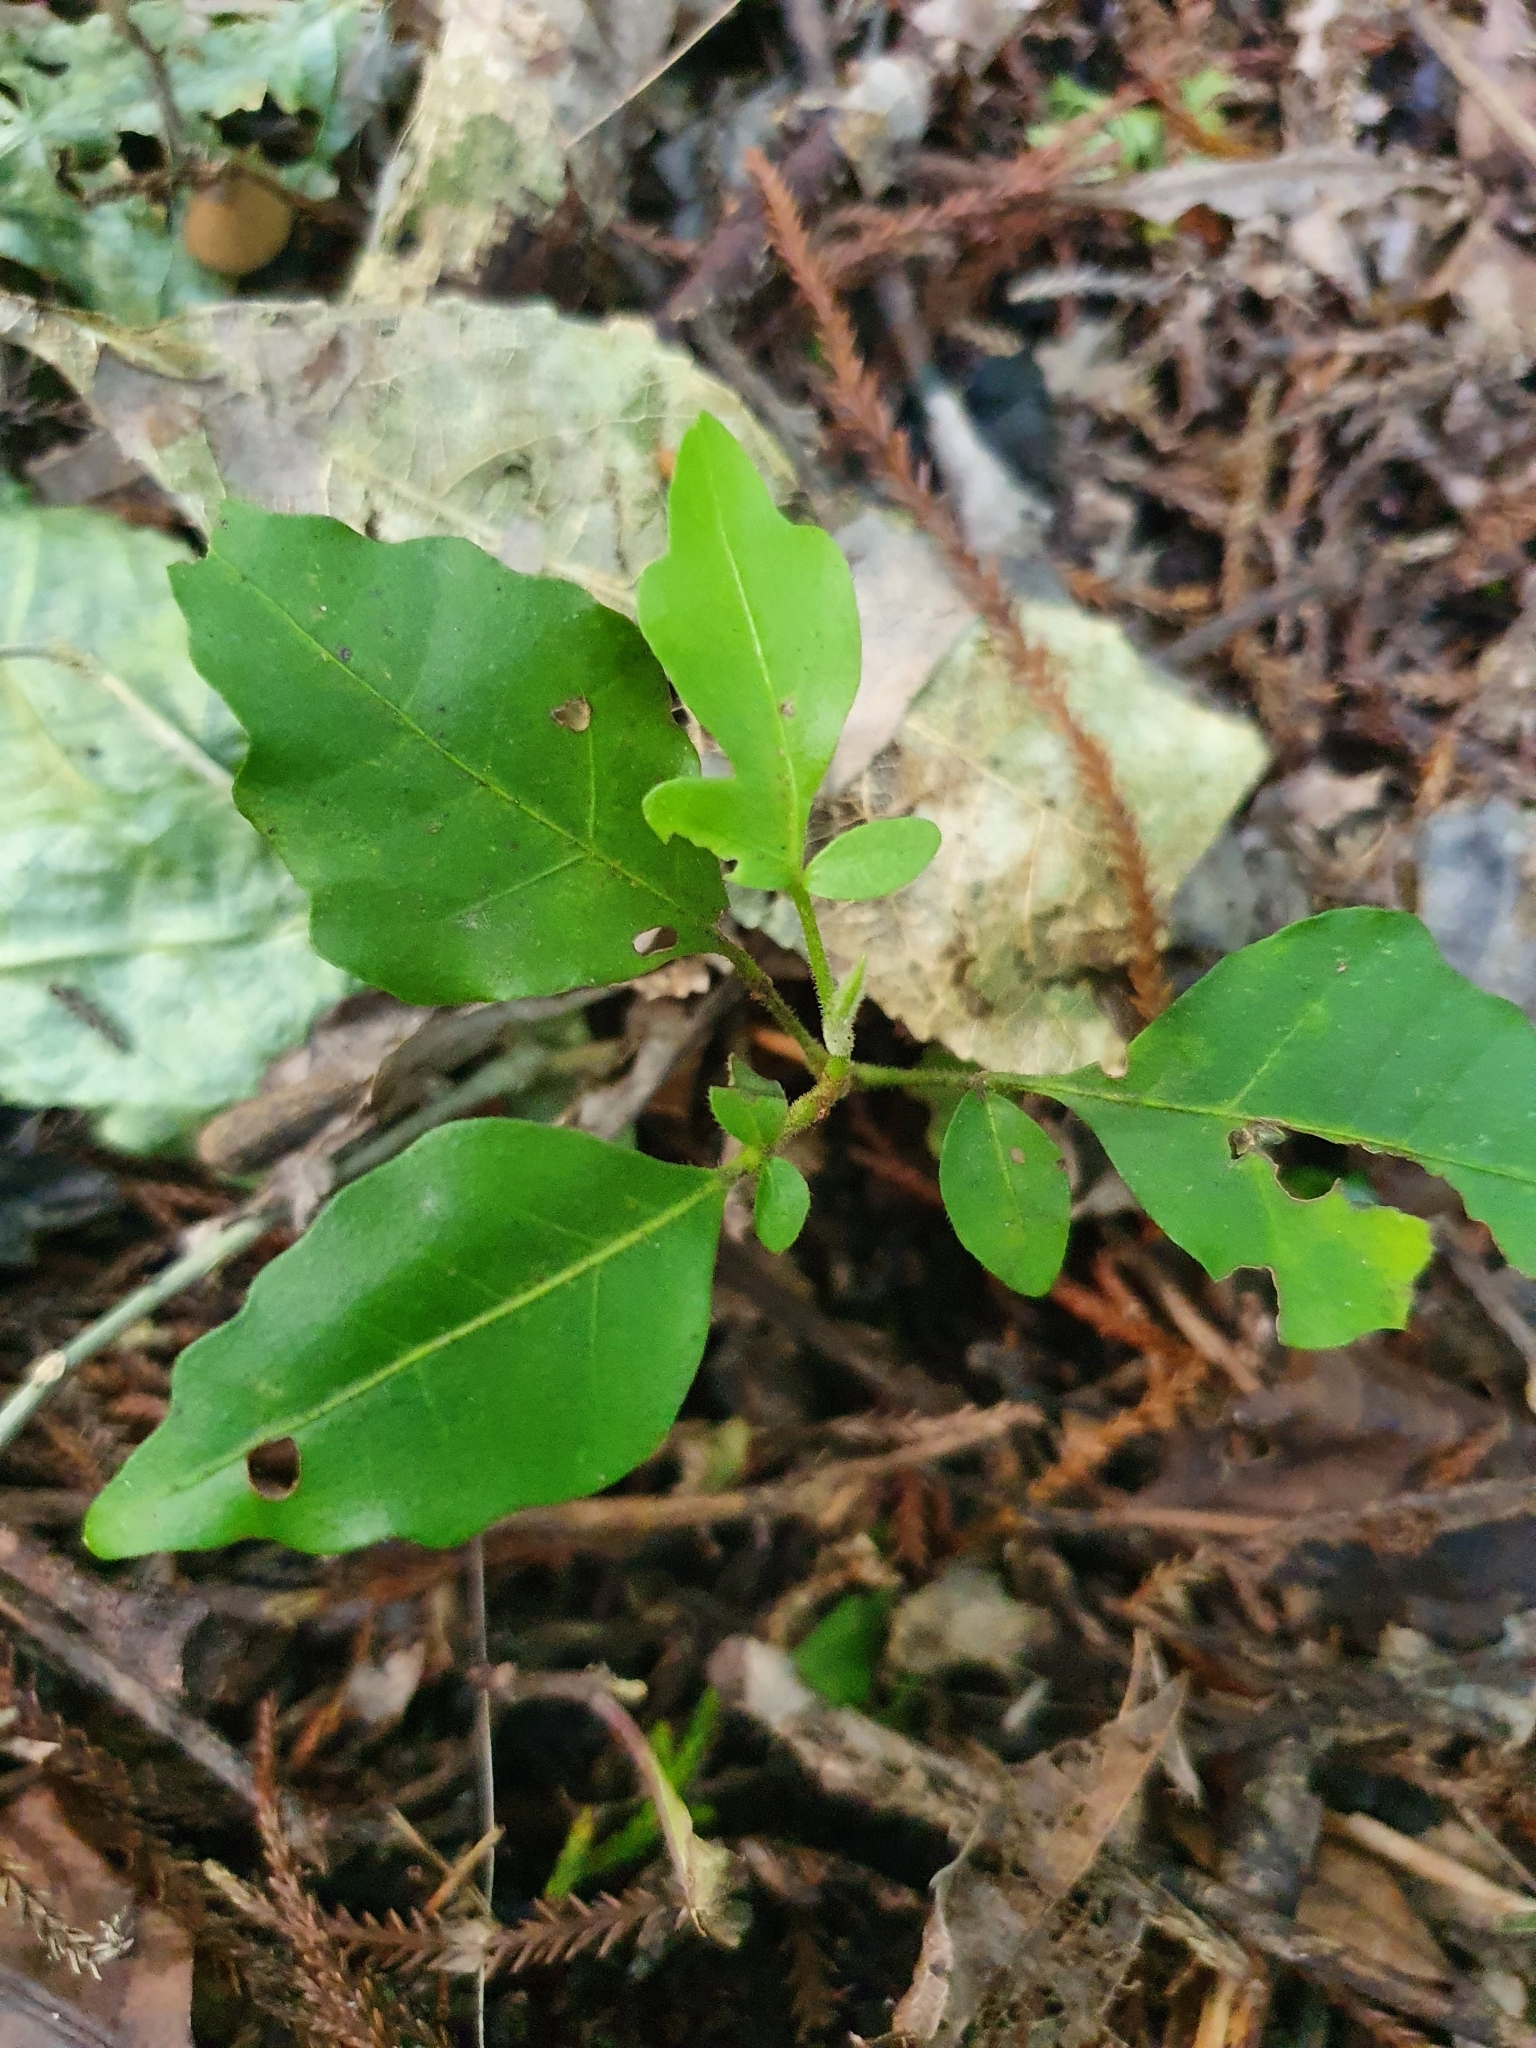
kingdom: Plantae
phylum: Tracheophyta
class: Magnoliopsida
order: Sapindales
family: Meliaceae
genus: Didymocheton
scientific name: Didymocheton spectabilis
